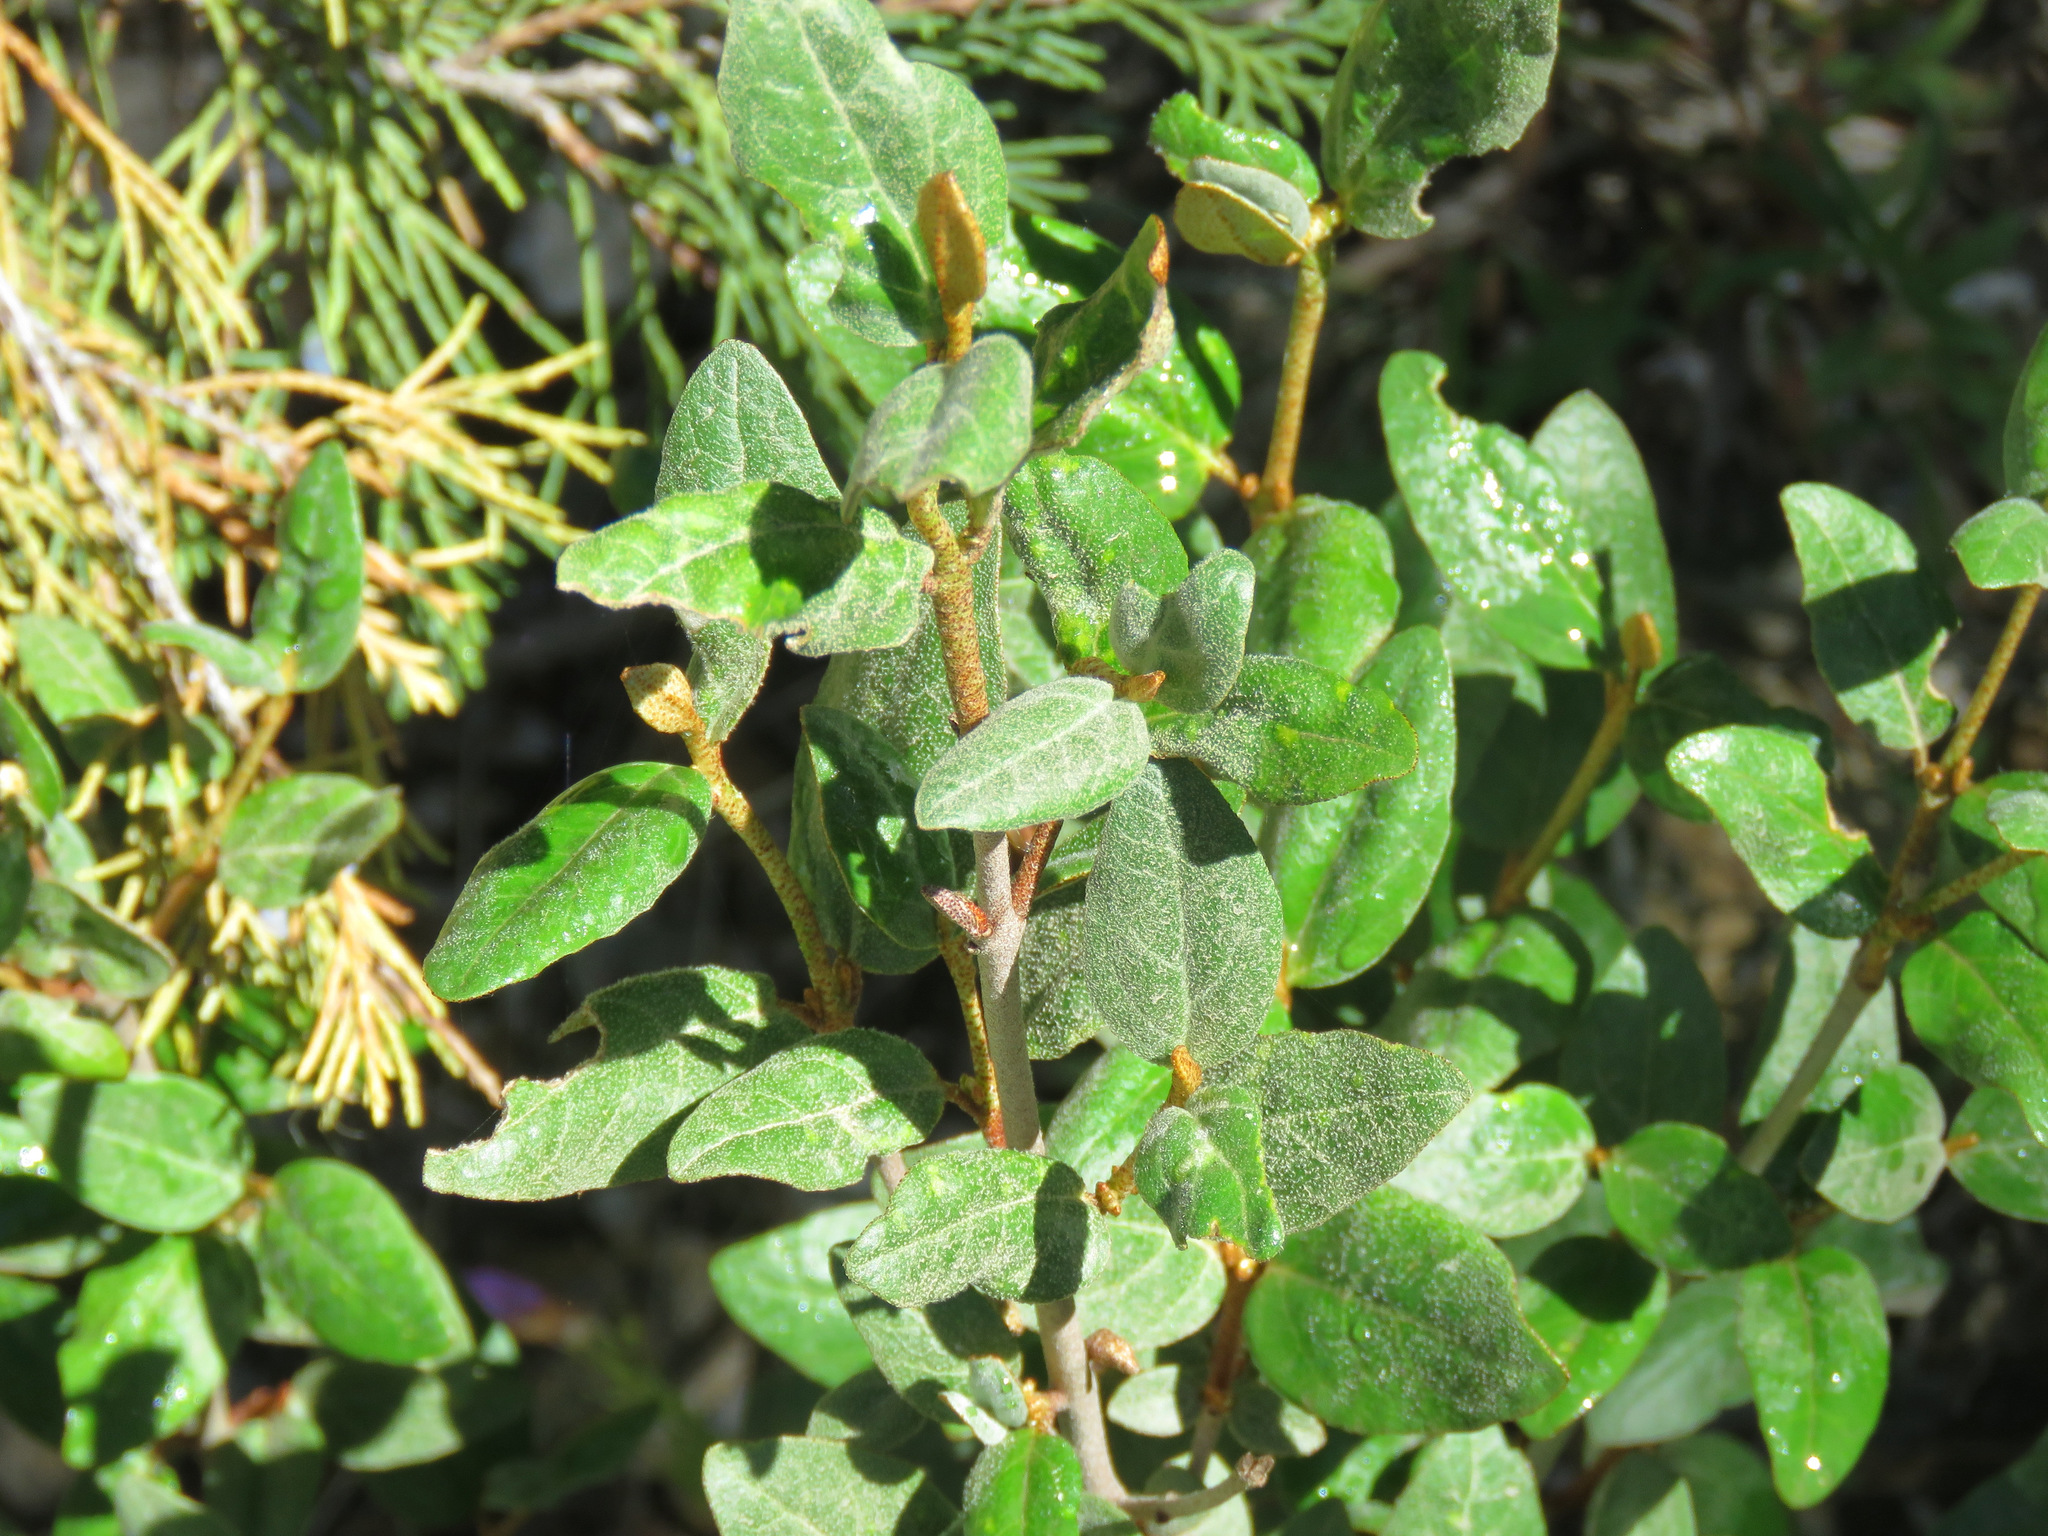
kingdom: Plantae
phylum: Tracheophyta
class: Magnoliopsida
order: Rosales
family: Elaeagnaceae
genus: Shepherdia
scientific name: Shepherdia canadensis
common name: Soapberry
